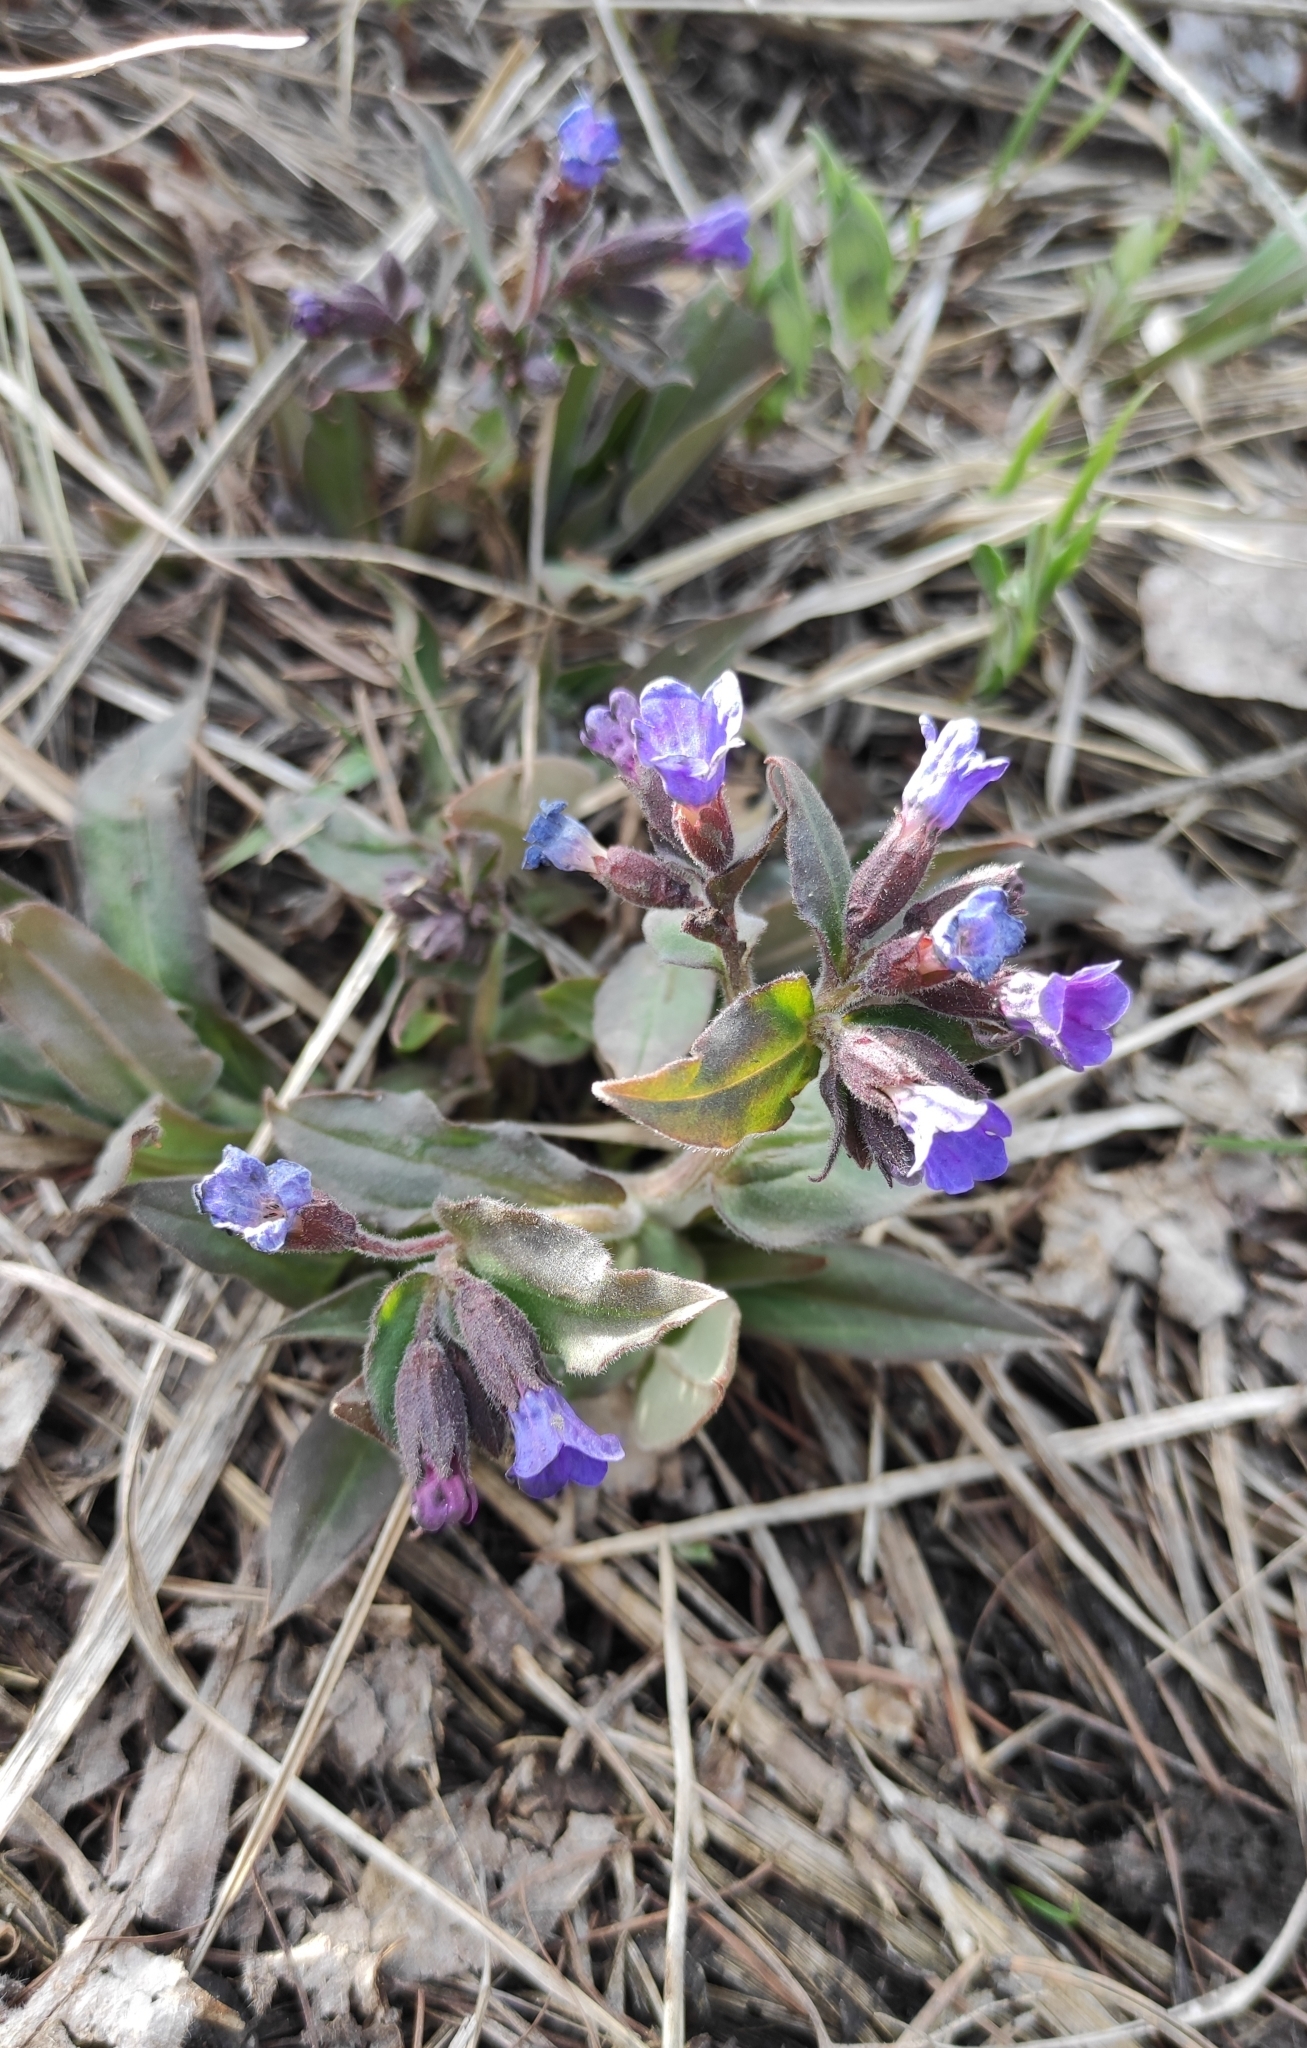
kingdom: Plantae
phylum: Tracheophyta
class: Magnoliopsida
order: Boraginales
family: Boraginaceae
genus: Pulmonaria
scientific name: Pulmonaria mollis
